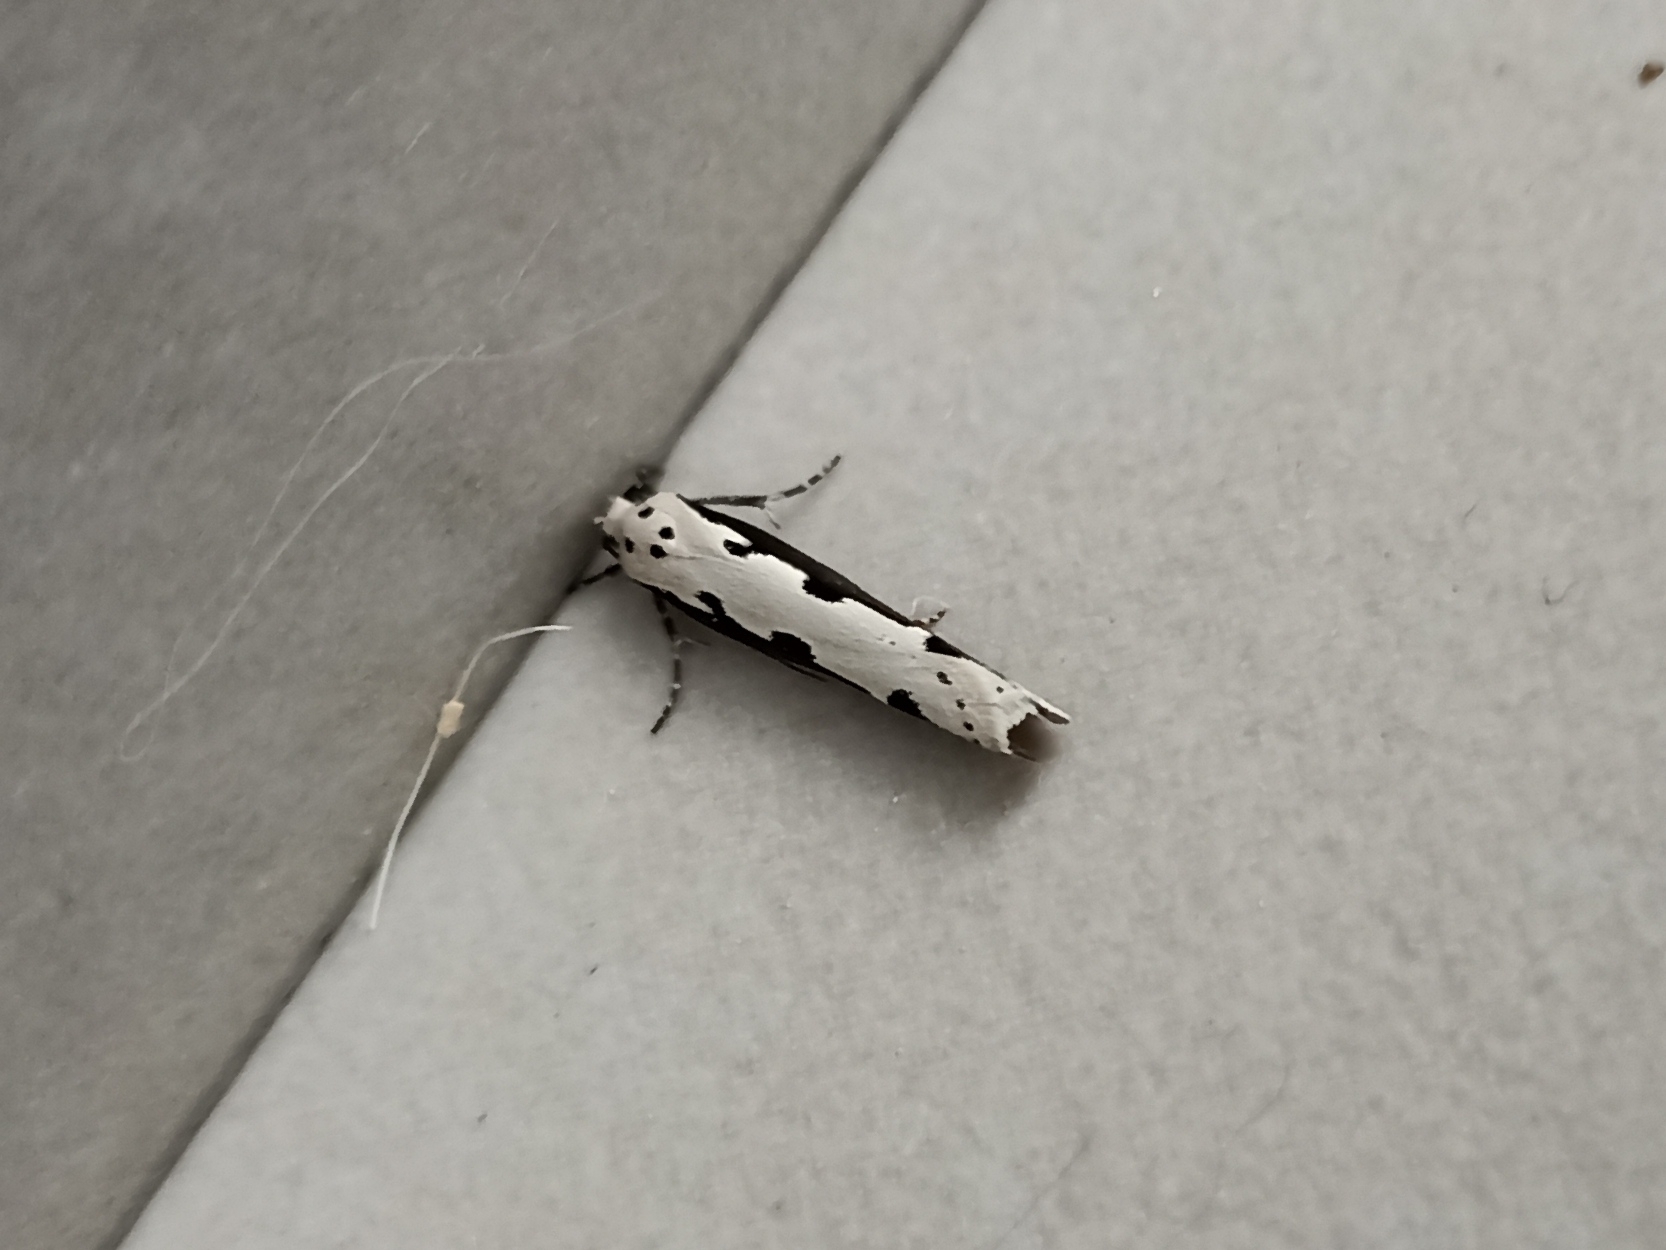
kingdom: Animalia
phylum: Arthropoda
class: Insecta
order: Lepidoptera
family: Ethmiidae
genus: Ethmia
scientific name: Ethmia bipunctella
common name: Bordered ermel
